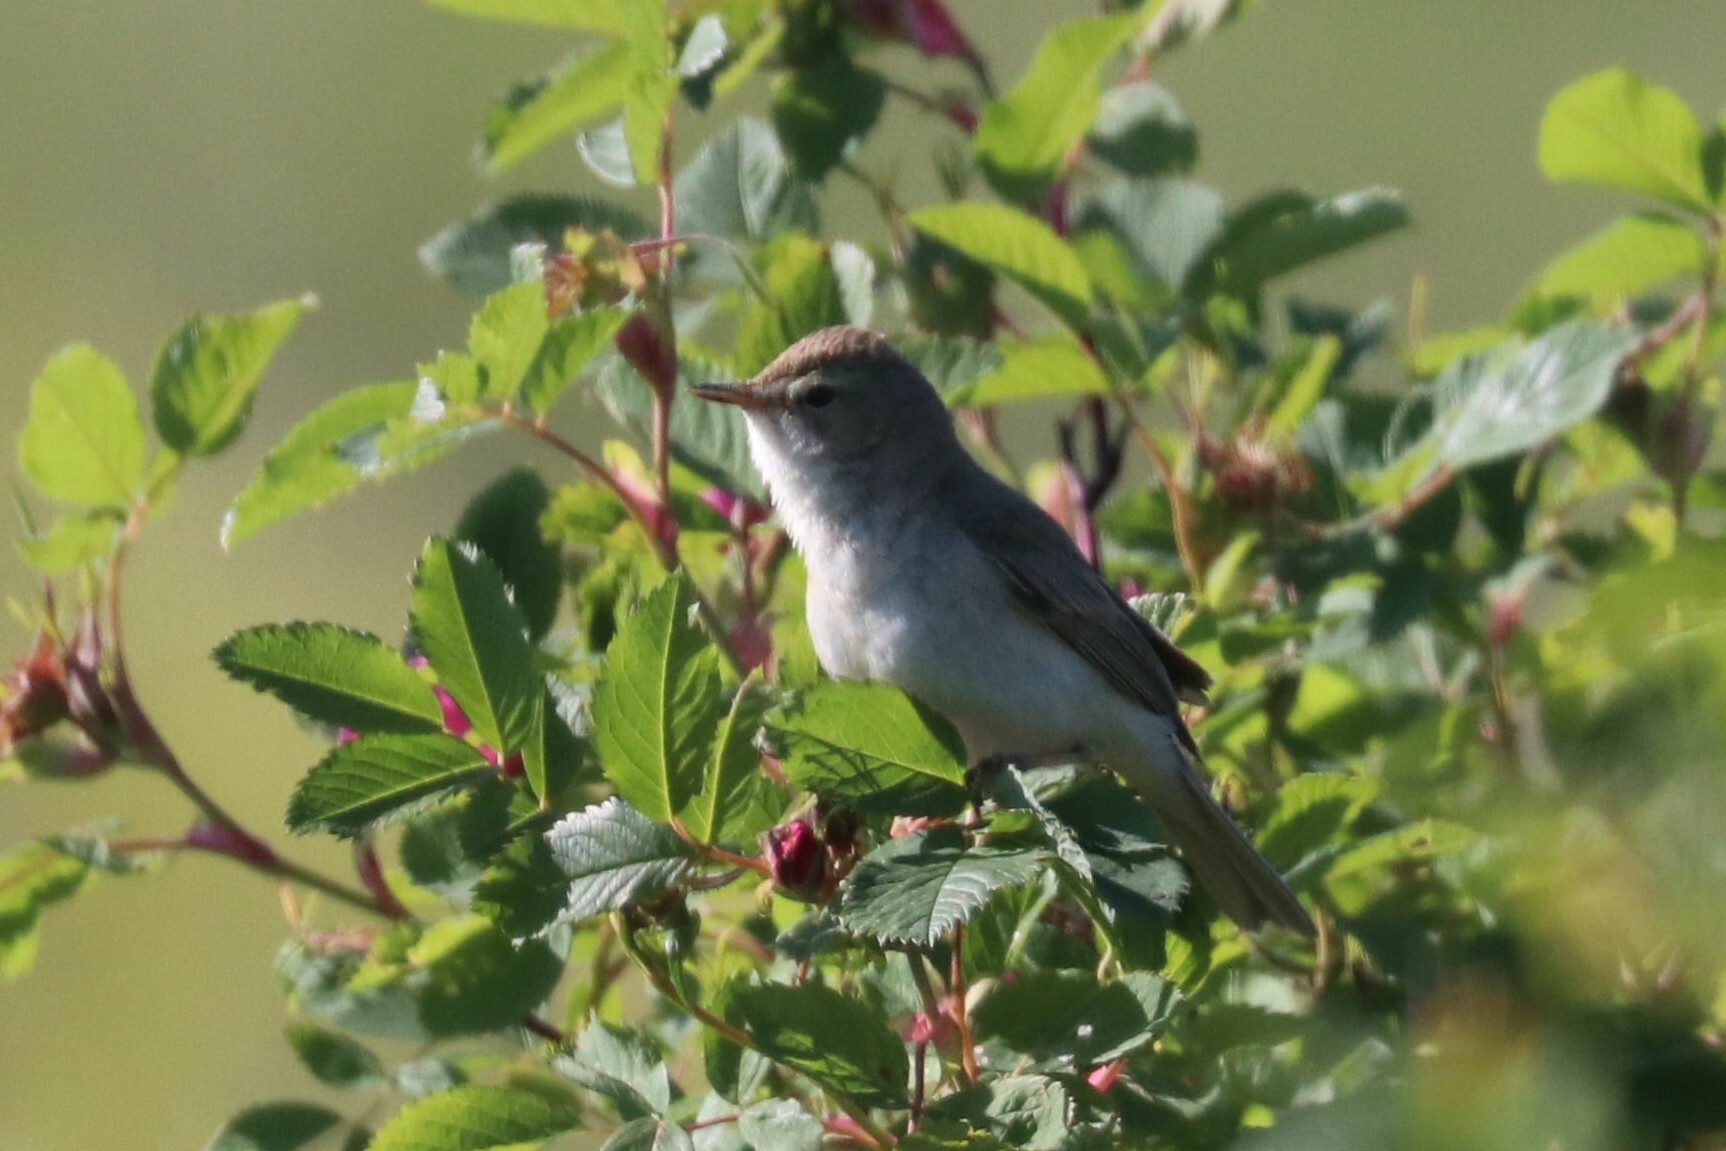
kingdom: Animalia
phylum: Chordata
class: Aves
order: Passeriformes
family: Acrocephalidae
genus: Iduna
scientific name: Iduna caligata
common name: Booted warbler
